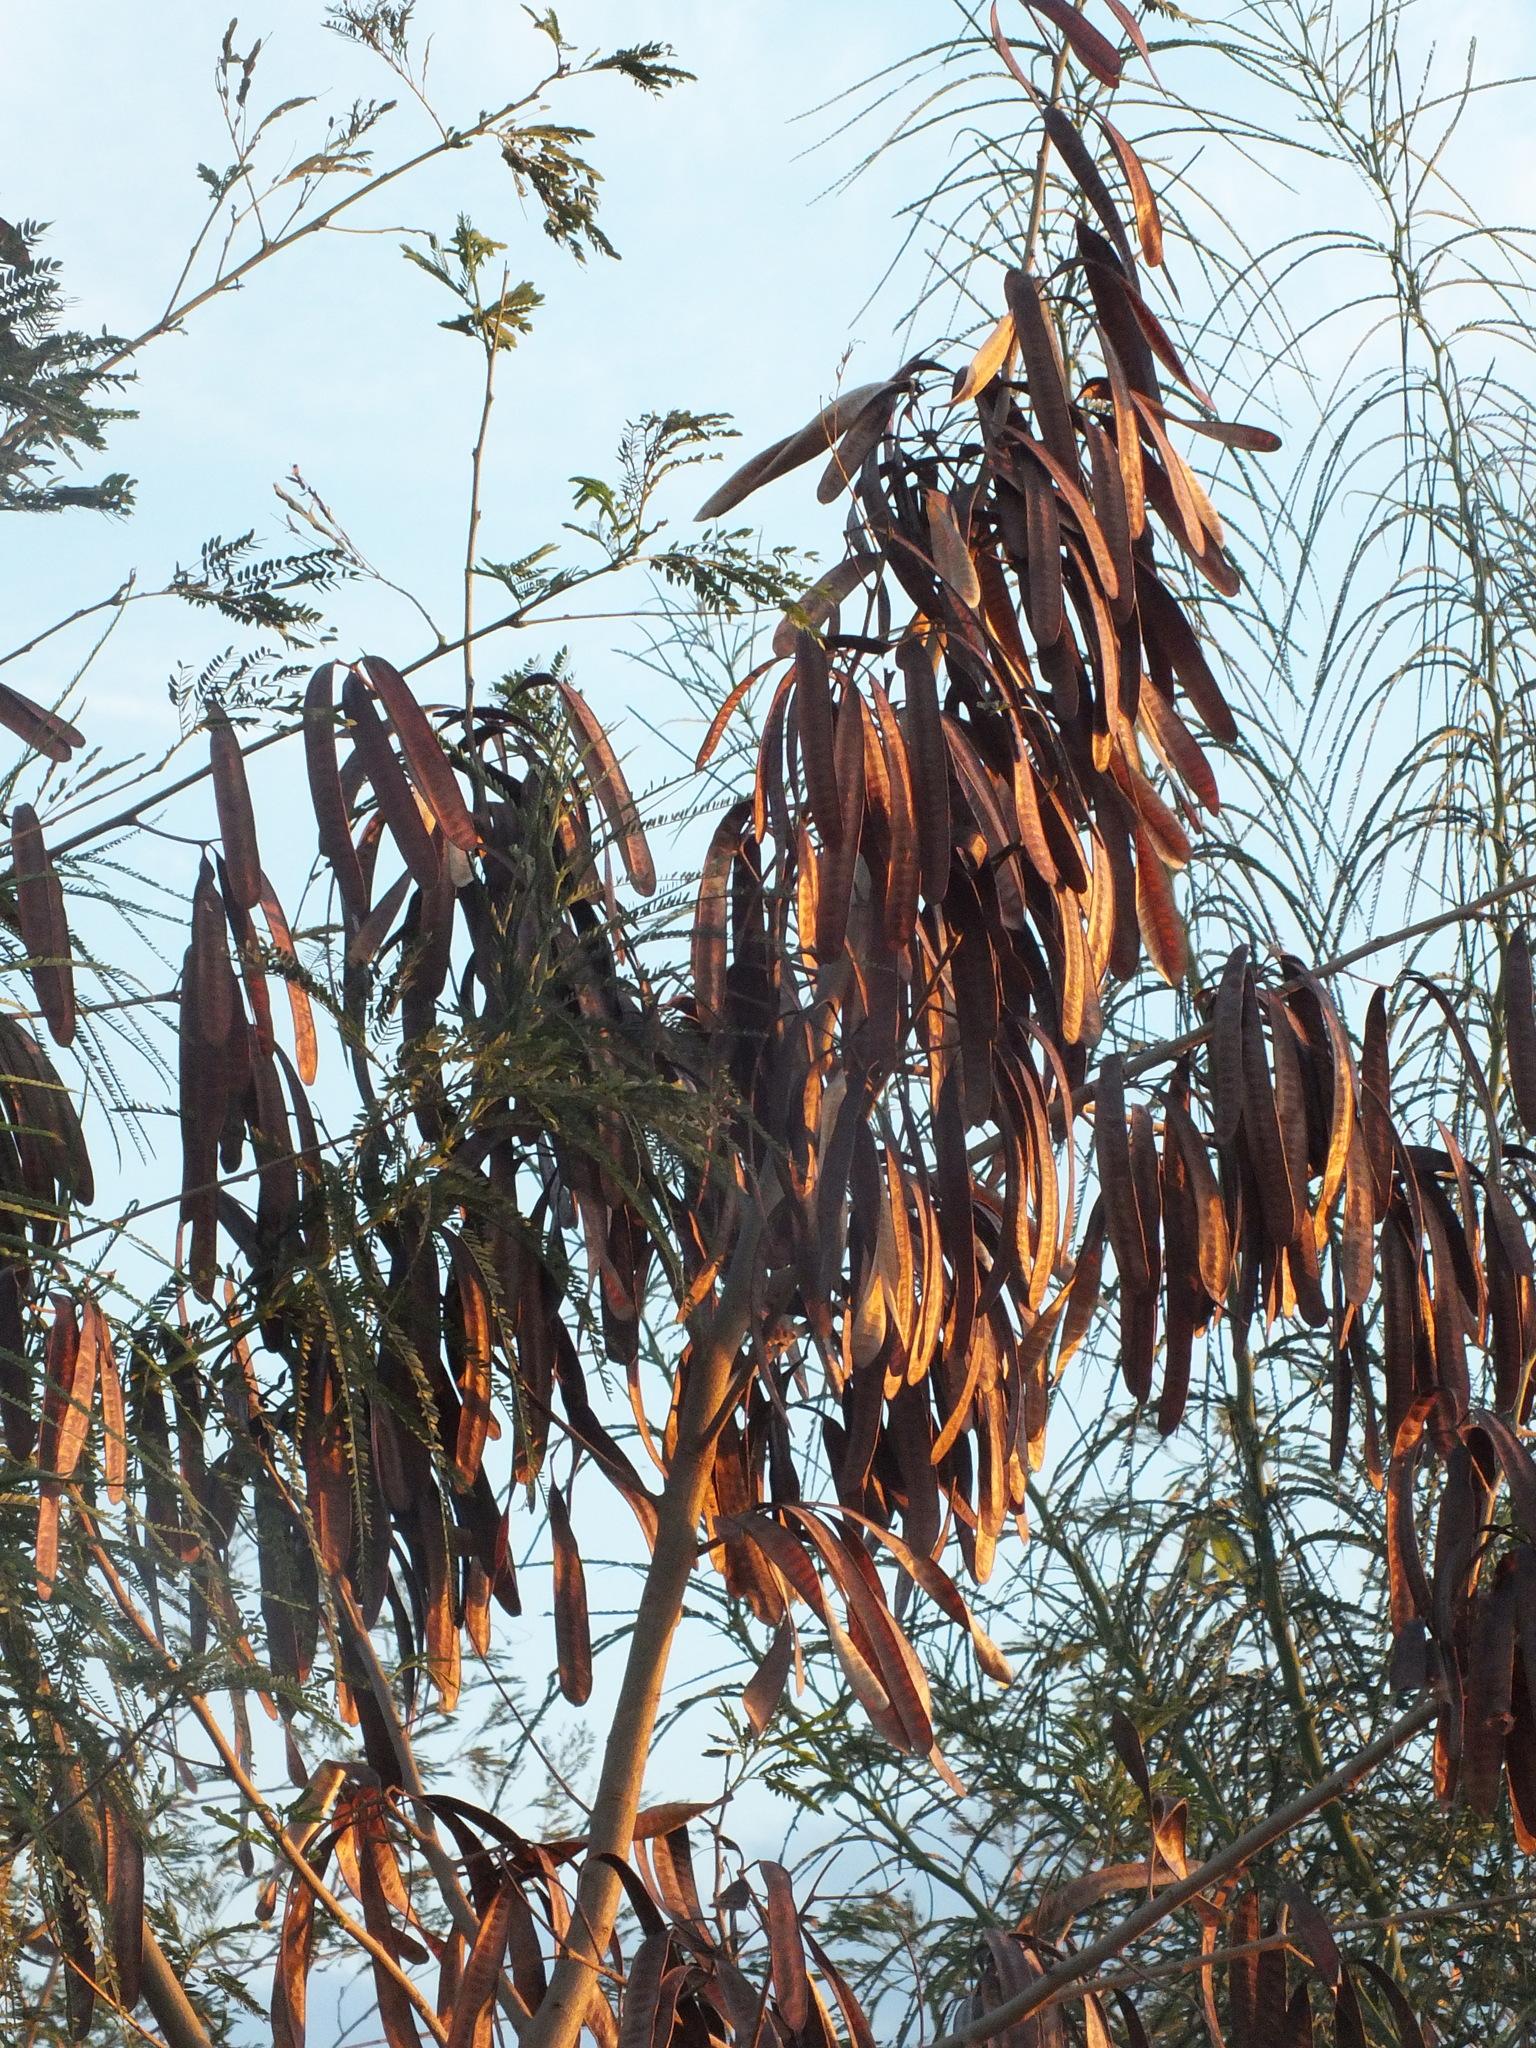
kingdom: Plantae
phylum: Tracheophyta
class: Magnoliopsida
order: Fabales
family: Fabaceae
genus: Leucaena
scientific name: Leucaena leucocephala
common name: White leadtree
